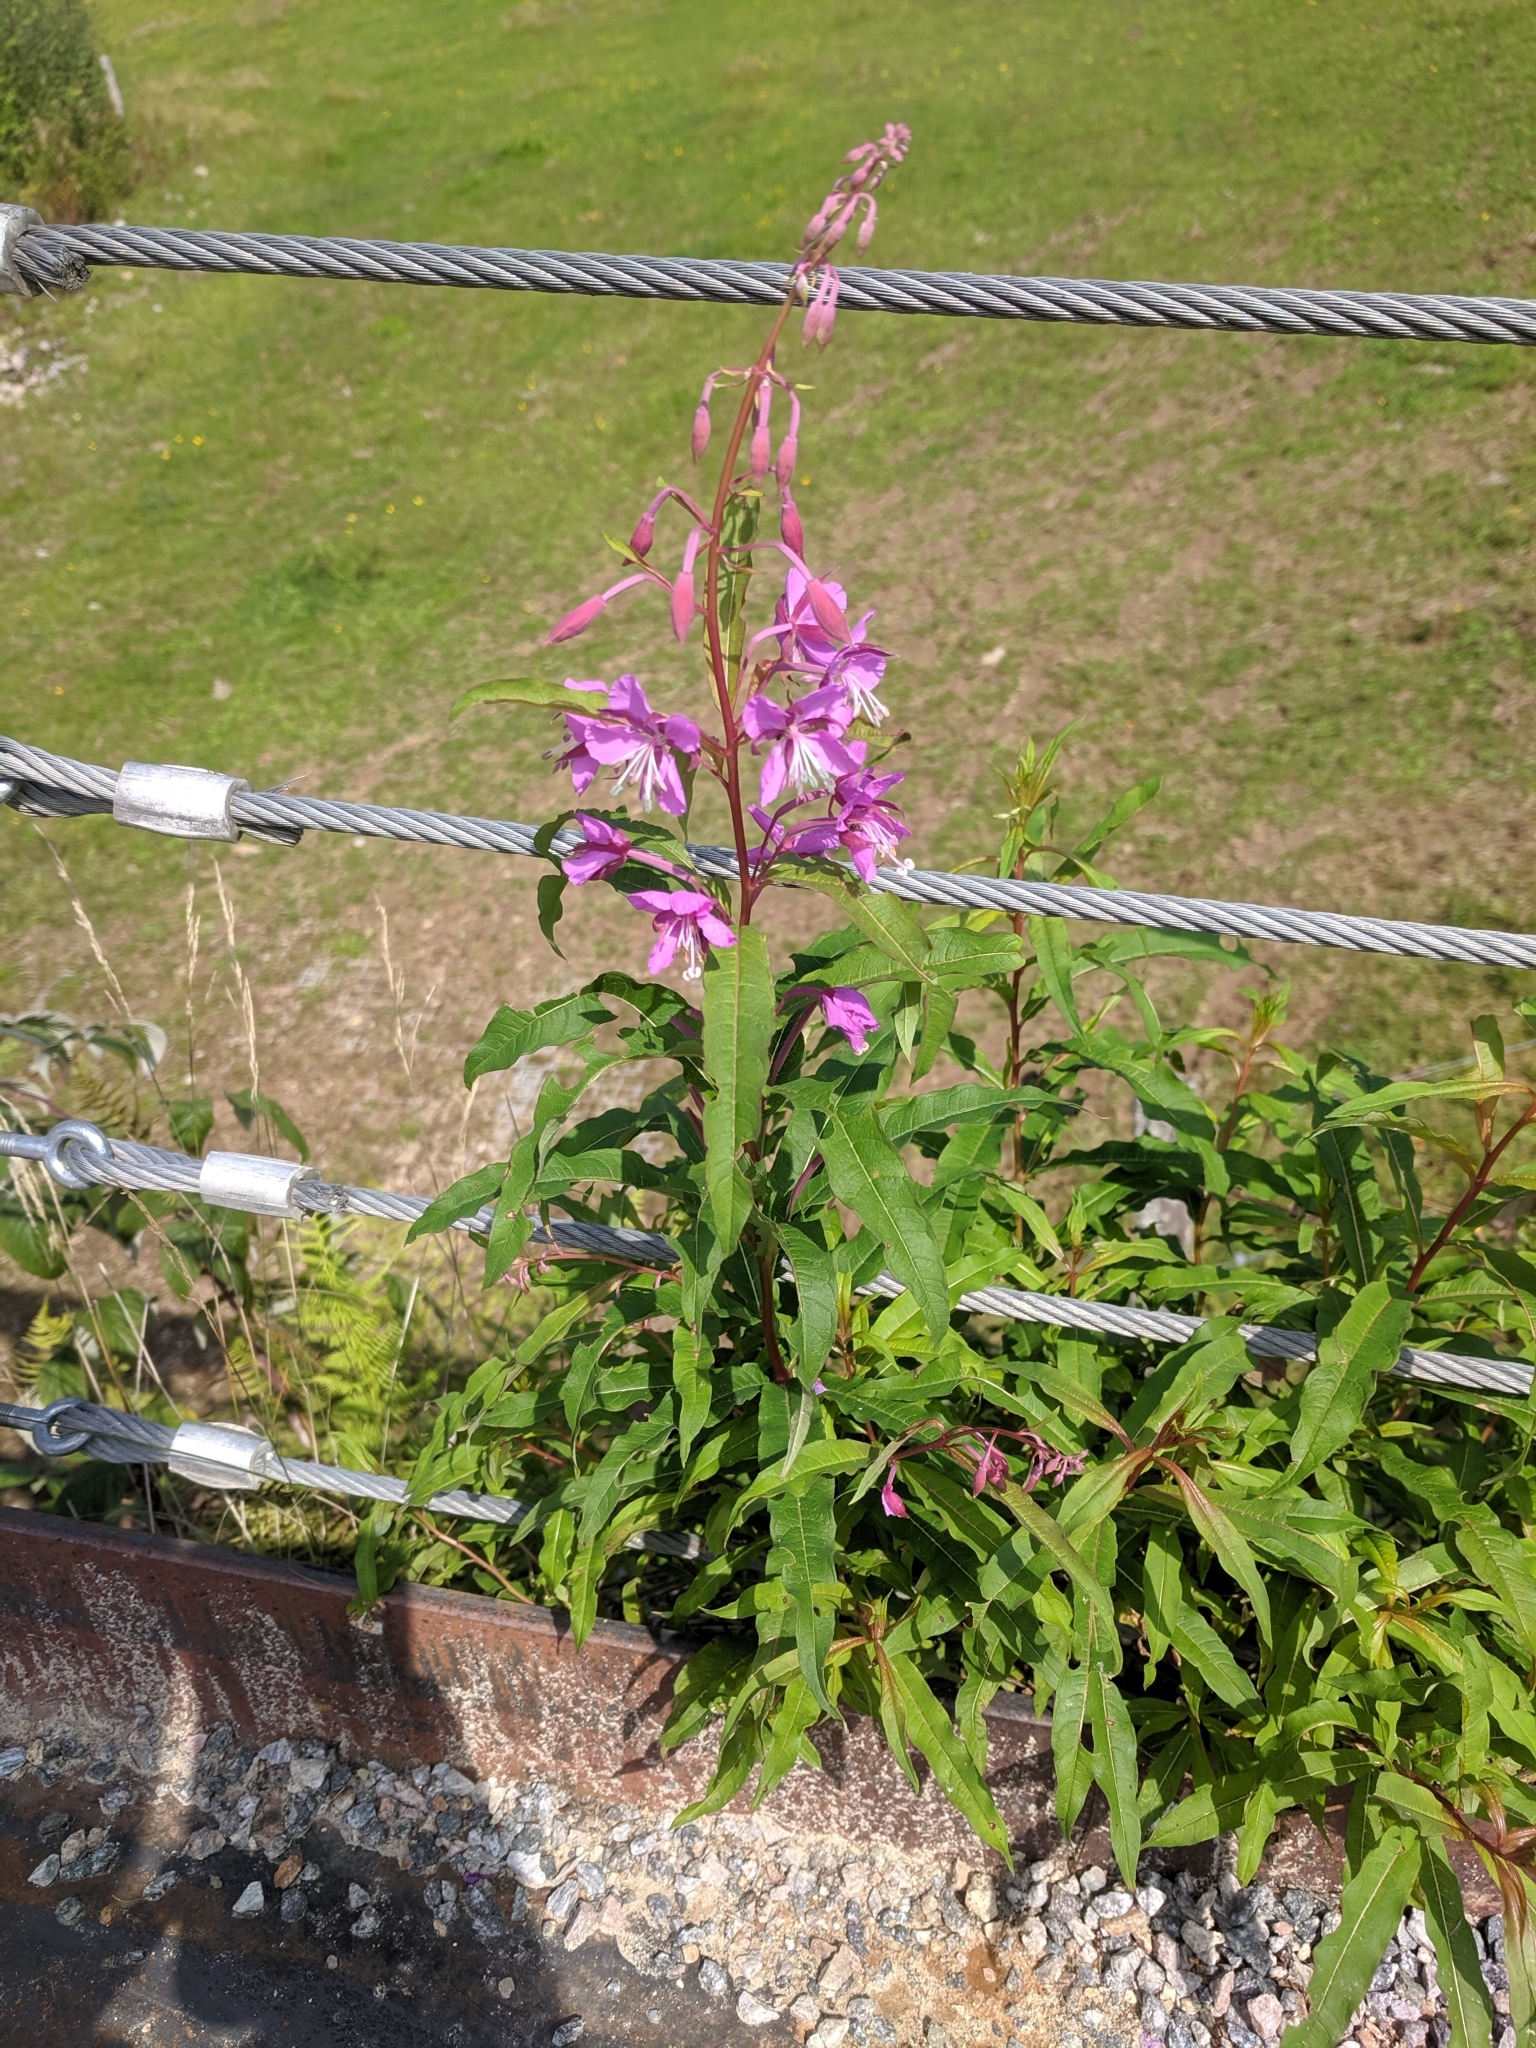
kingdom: Plantae
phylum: Tracheophyta
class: Magnoliopsida
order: Myrtales
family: Onagraceae
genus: Chamaenerion
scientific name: Chamaenerion angustifolium
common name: Fireweed
